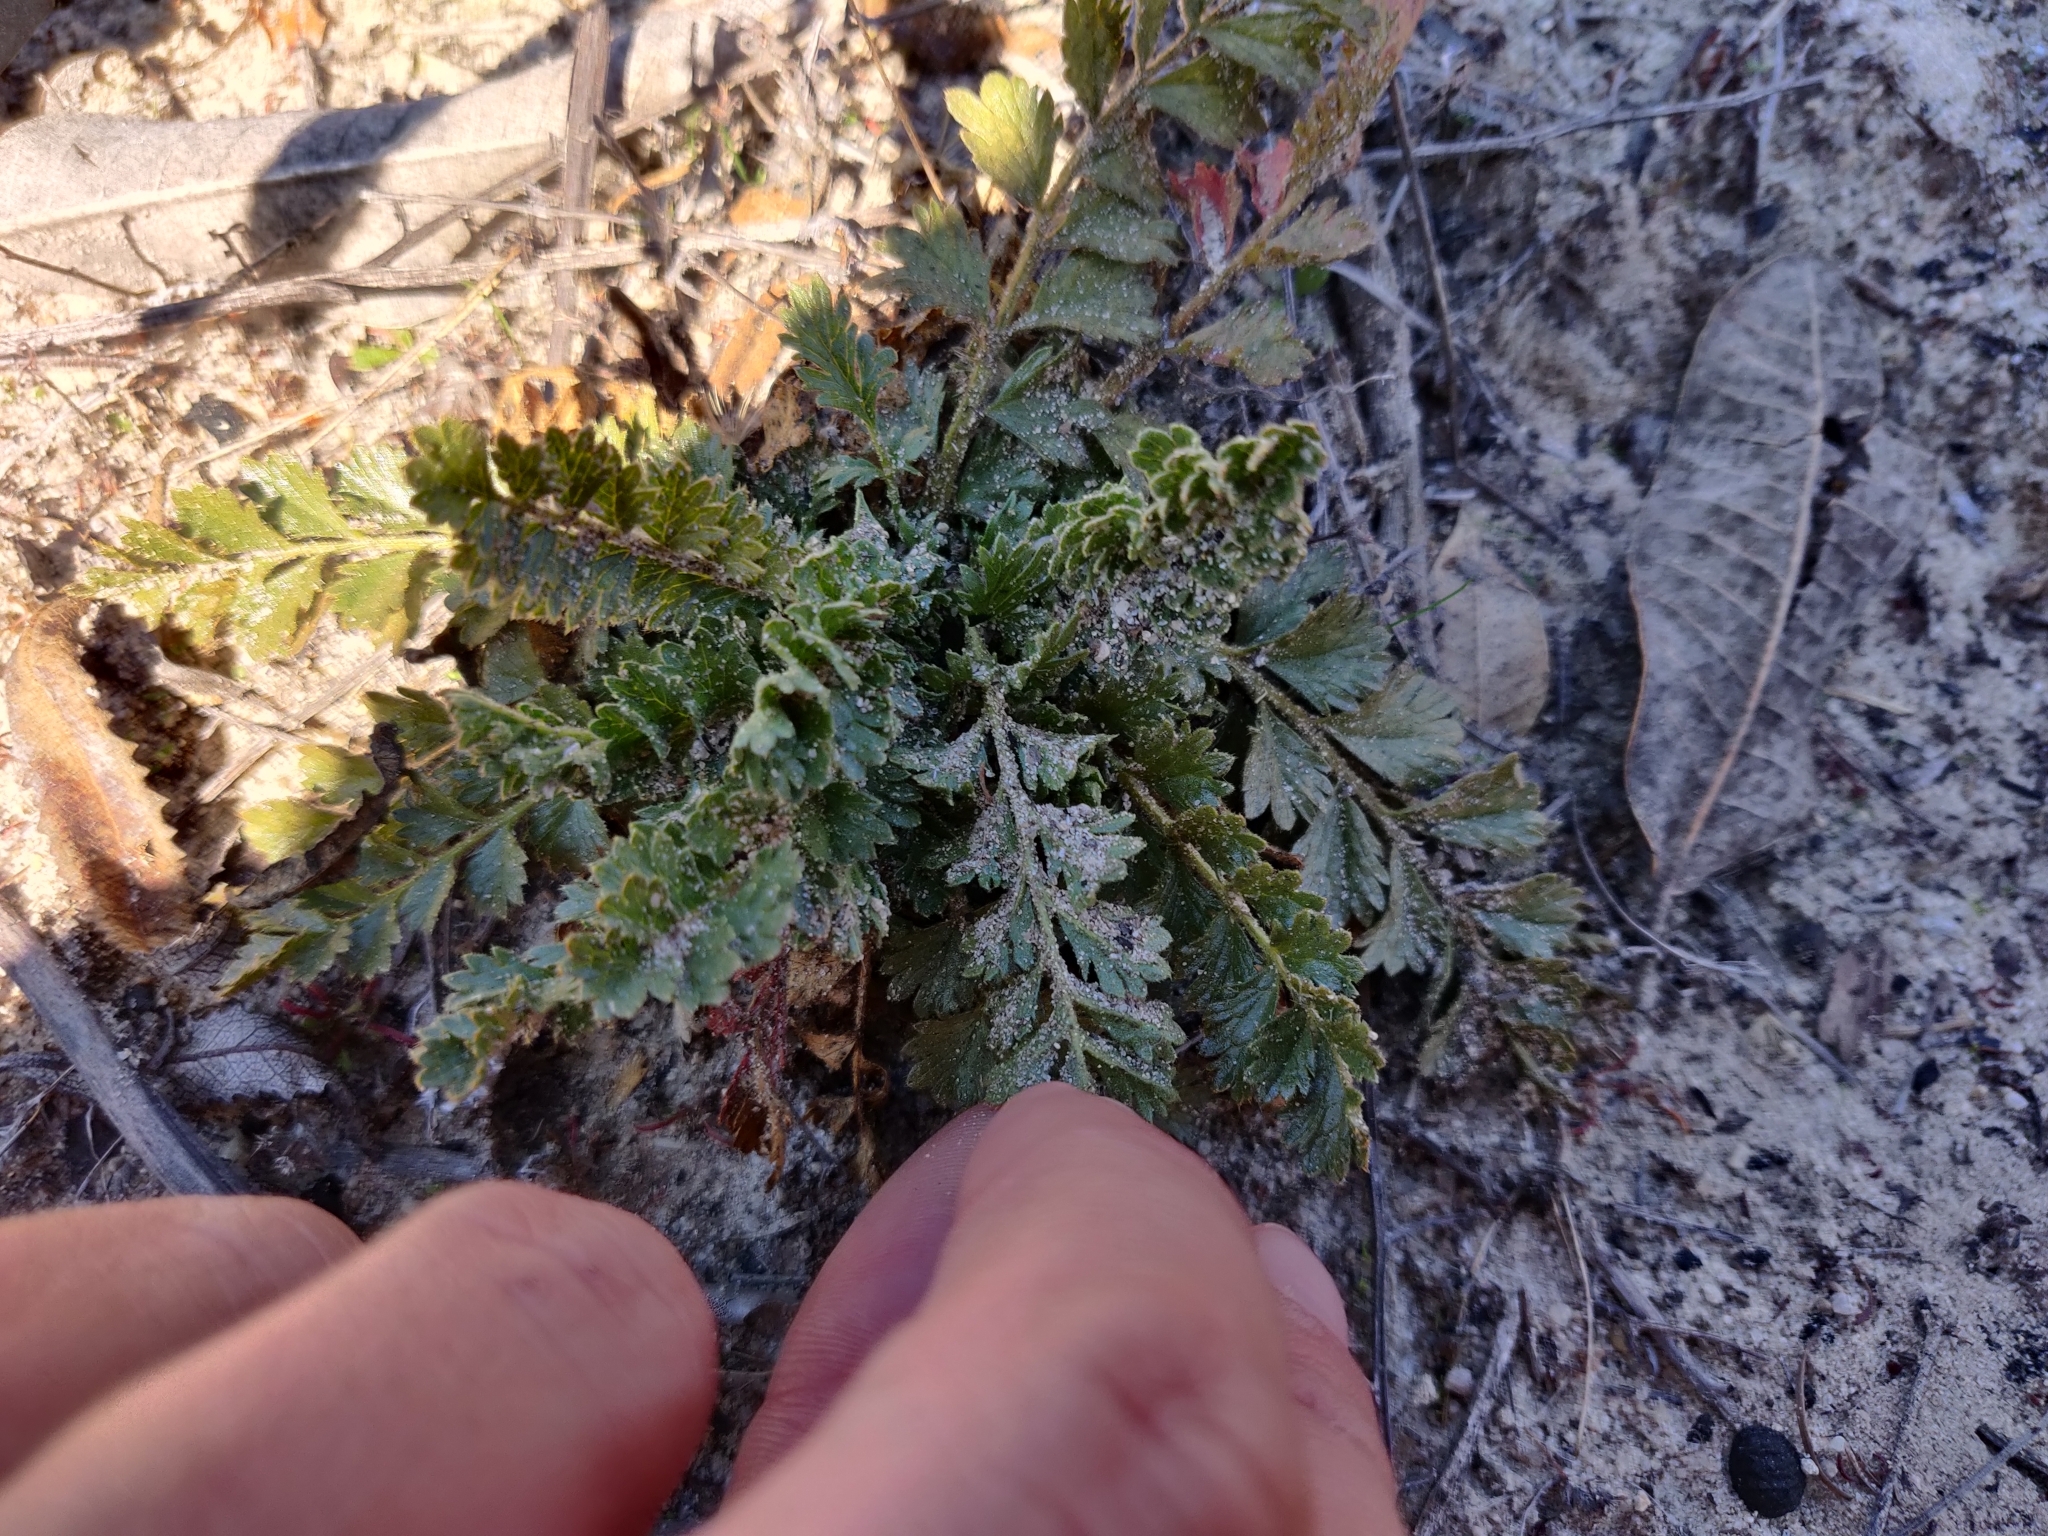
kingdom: Plantae
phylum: Tracheophyta
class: Magnoliopsida
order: Rosales
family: Rosaceae
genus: Potentilla
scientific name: Potentilla
